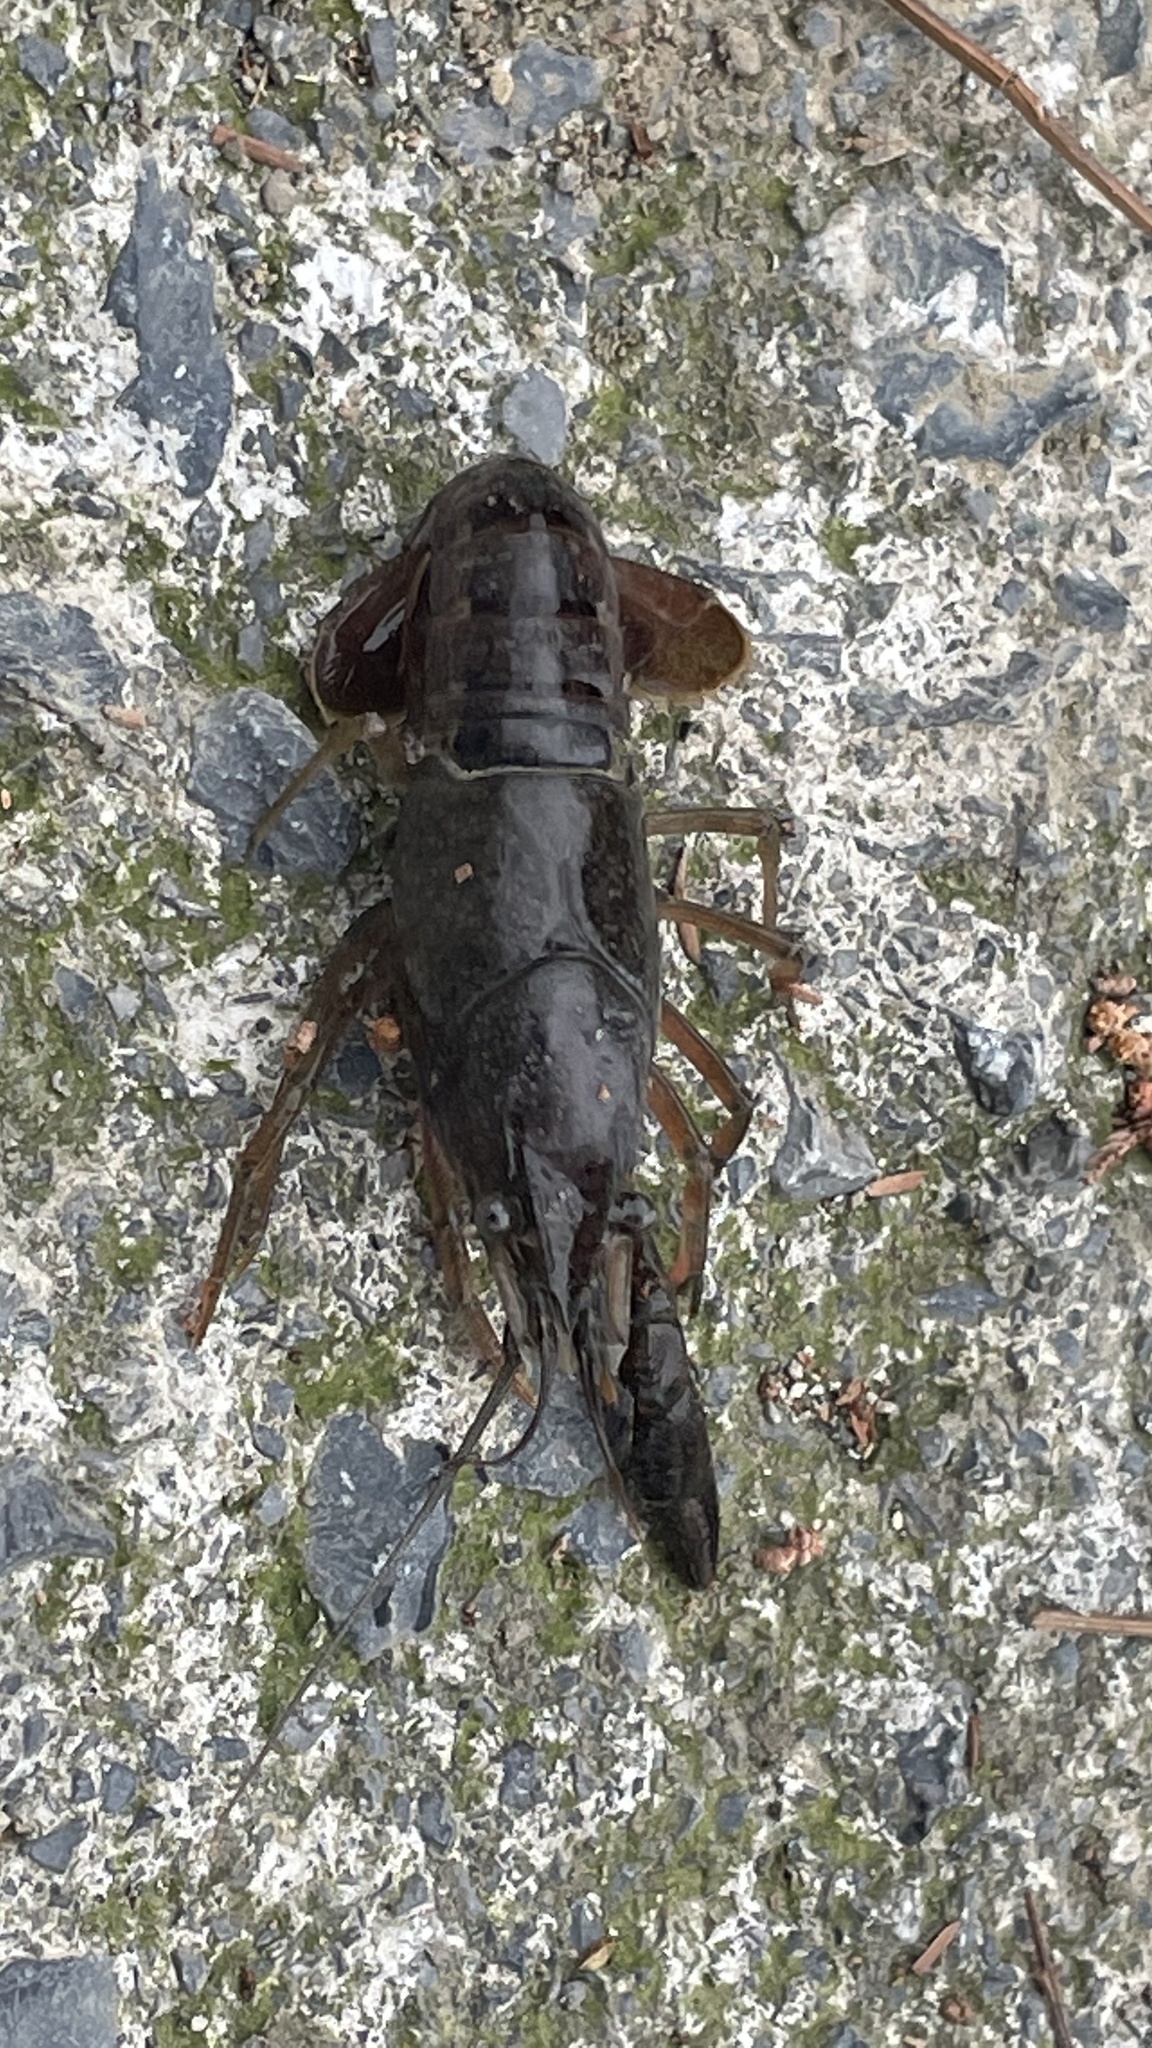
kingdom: Animalia
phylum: Arthropoda
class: Malacostraca
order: Decapoda
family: Cambaridae
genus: Procambarus
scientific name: Procambarus clarkii
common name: Red swamp crayfish
